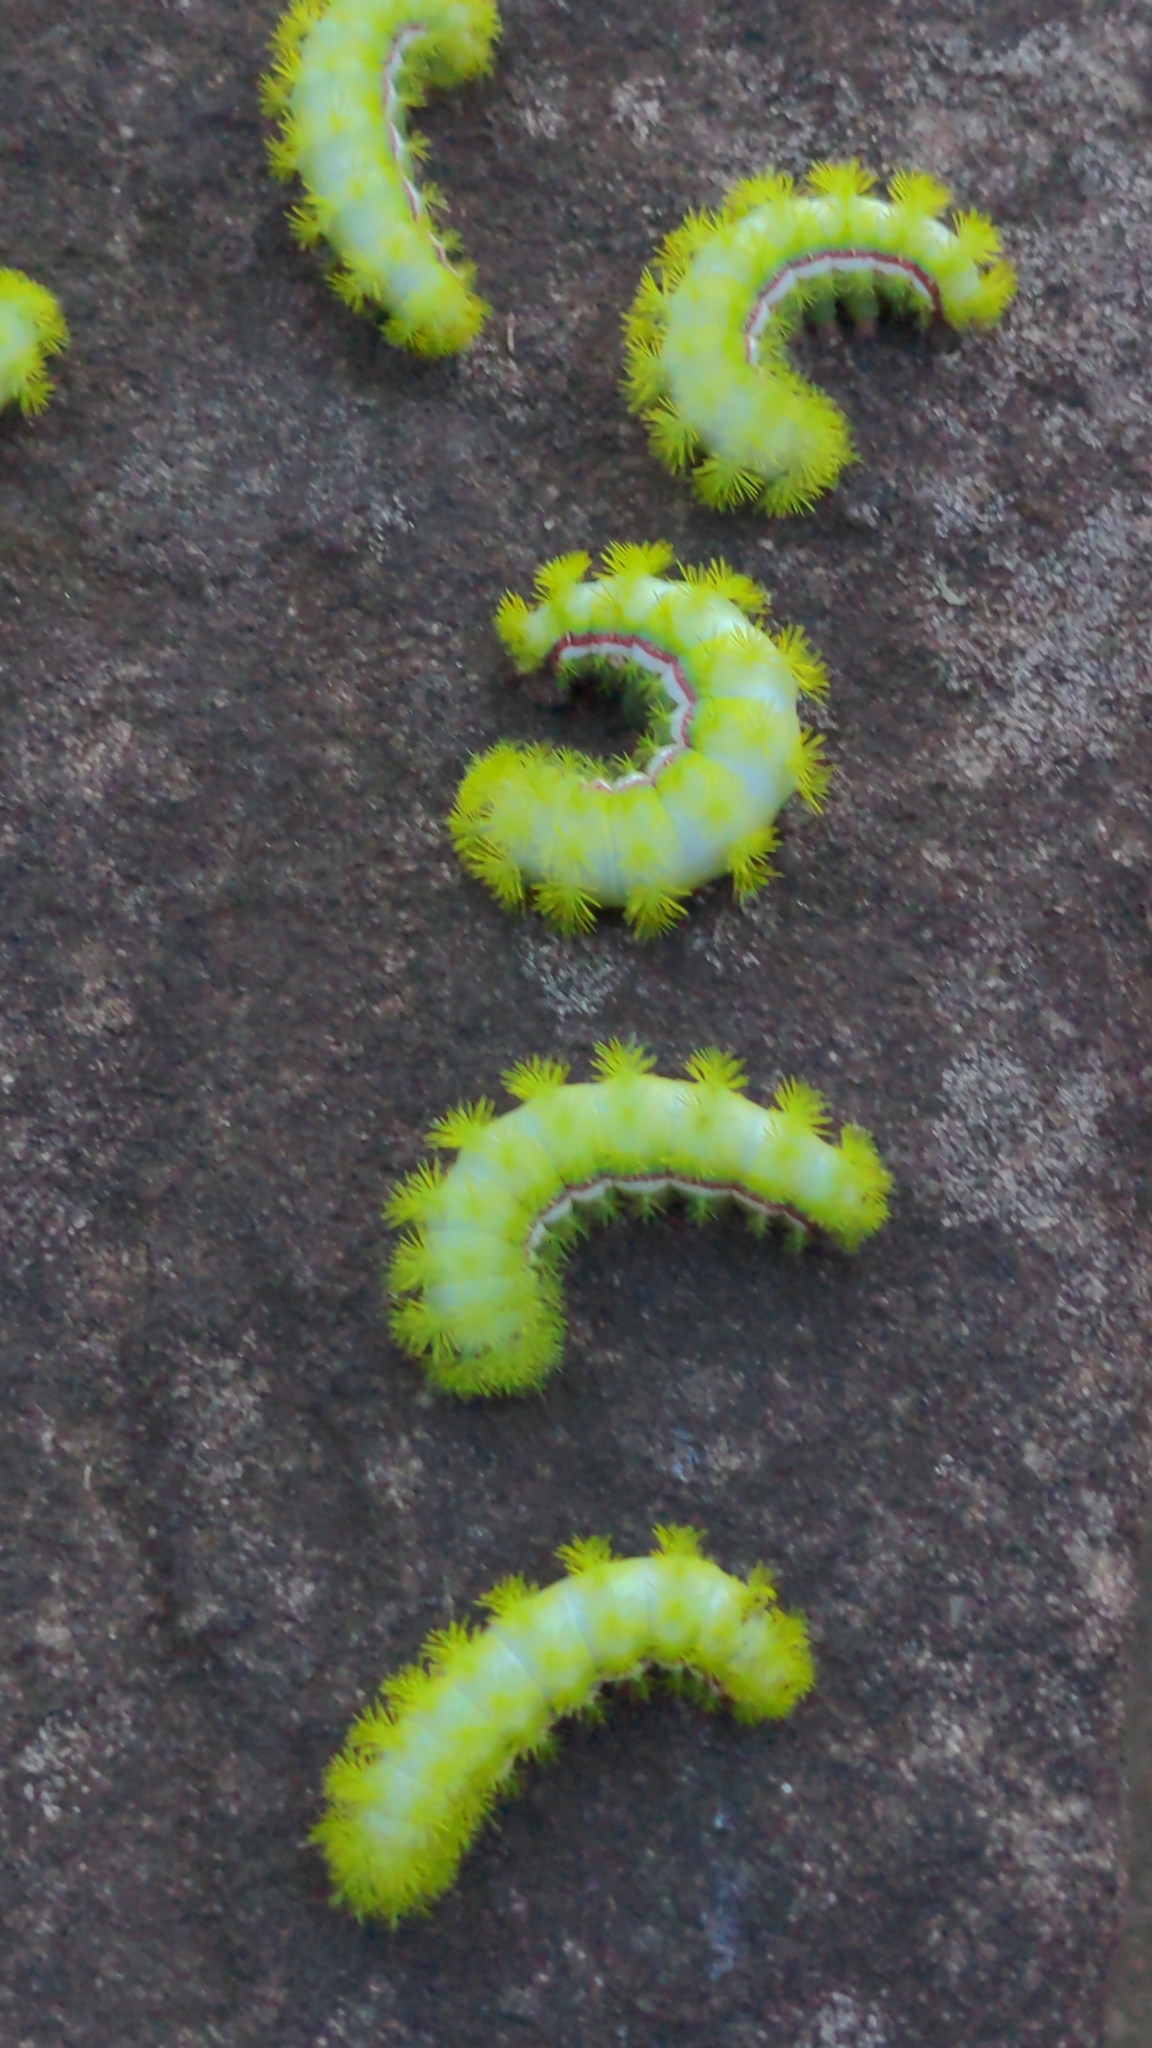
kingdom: Animalia
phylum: Arthropoda
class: Insecta
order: Lepidoptera
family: Saturniidae
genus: Automeris
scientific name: Automeris io
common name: Io moth
